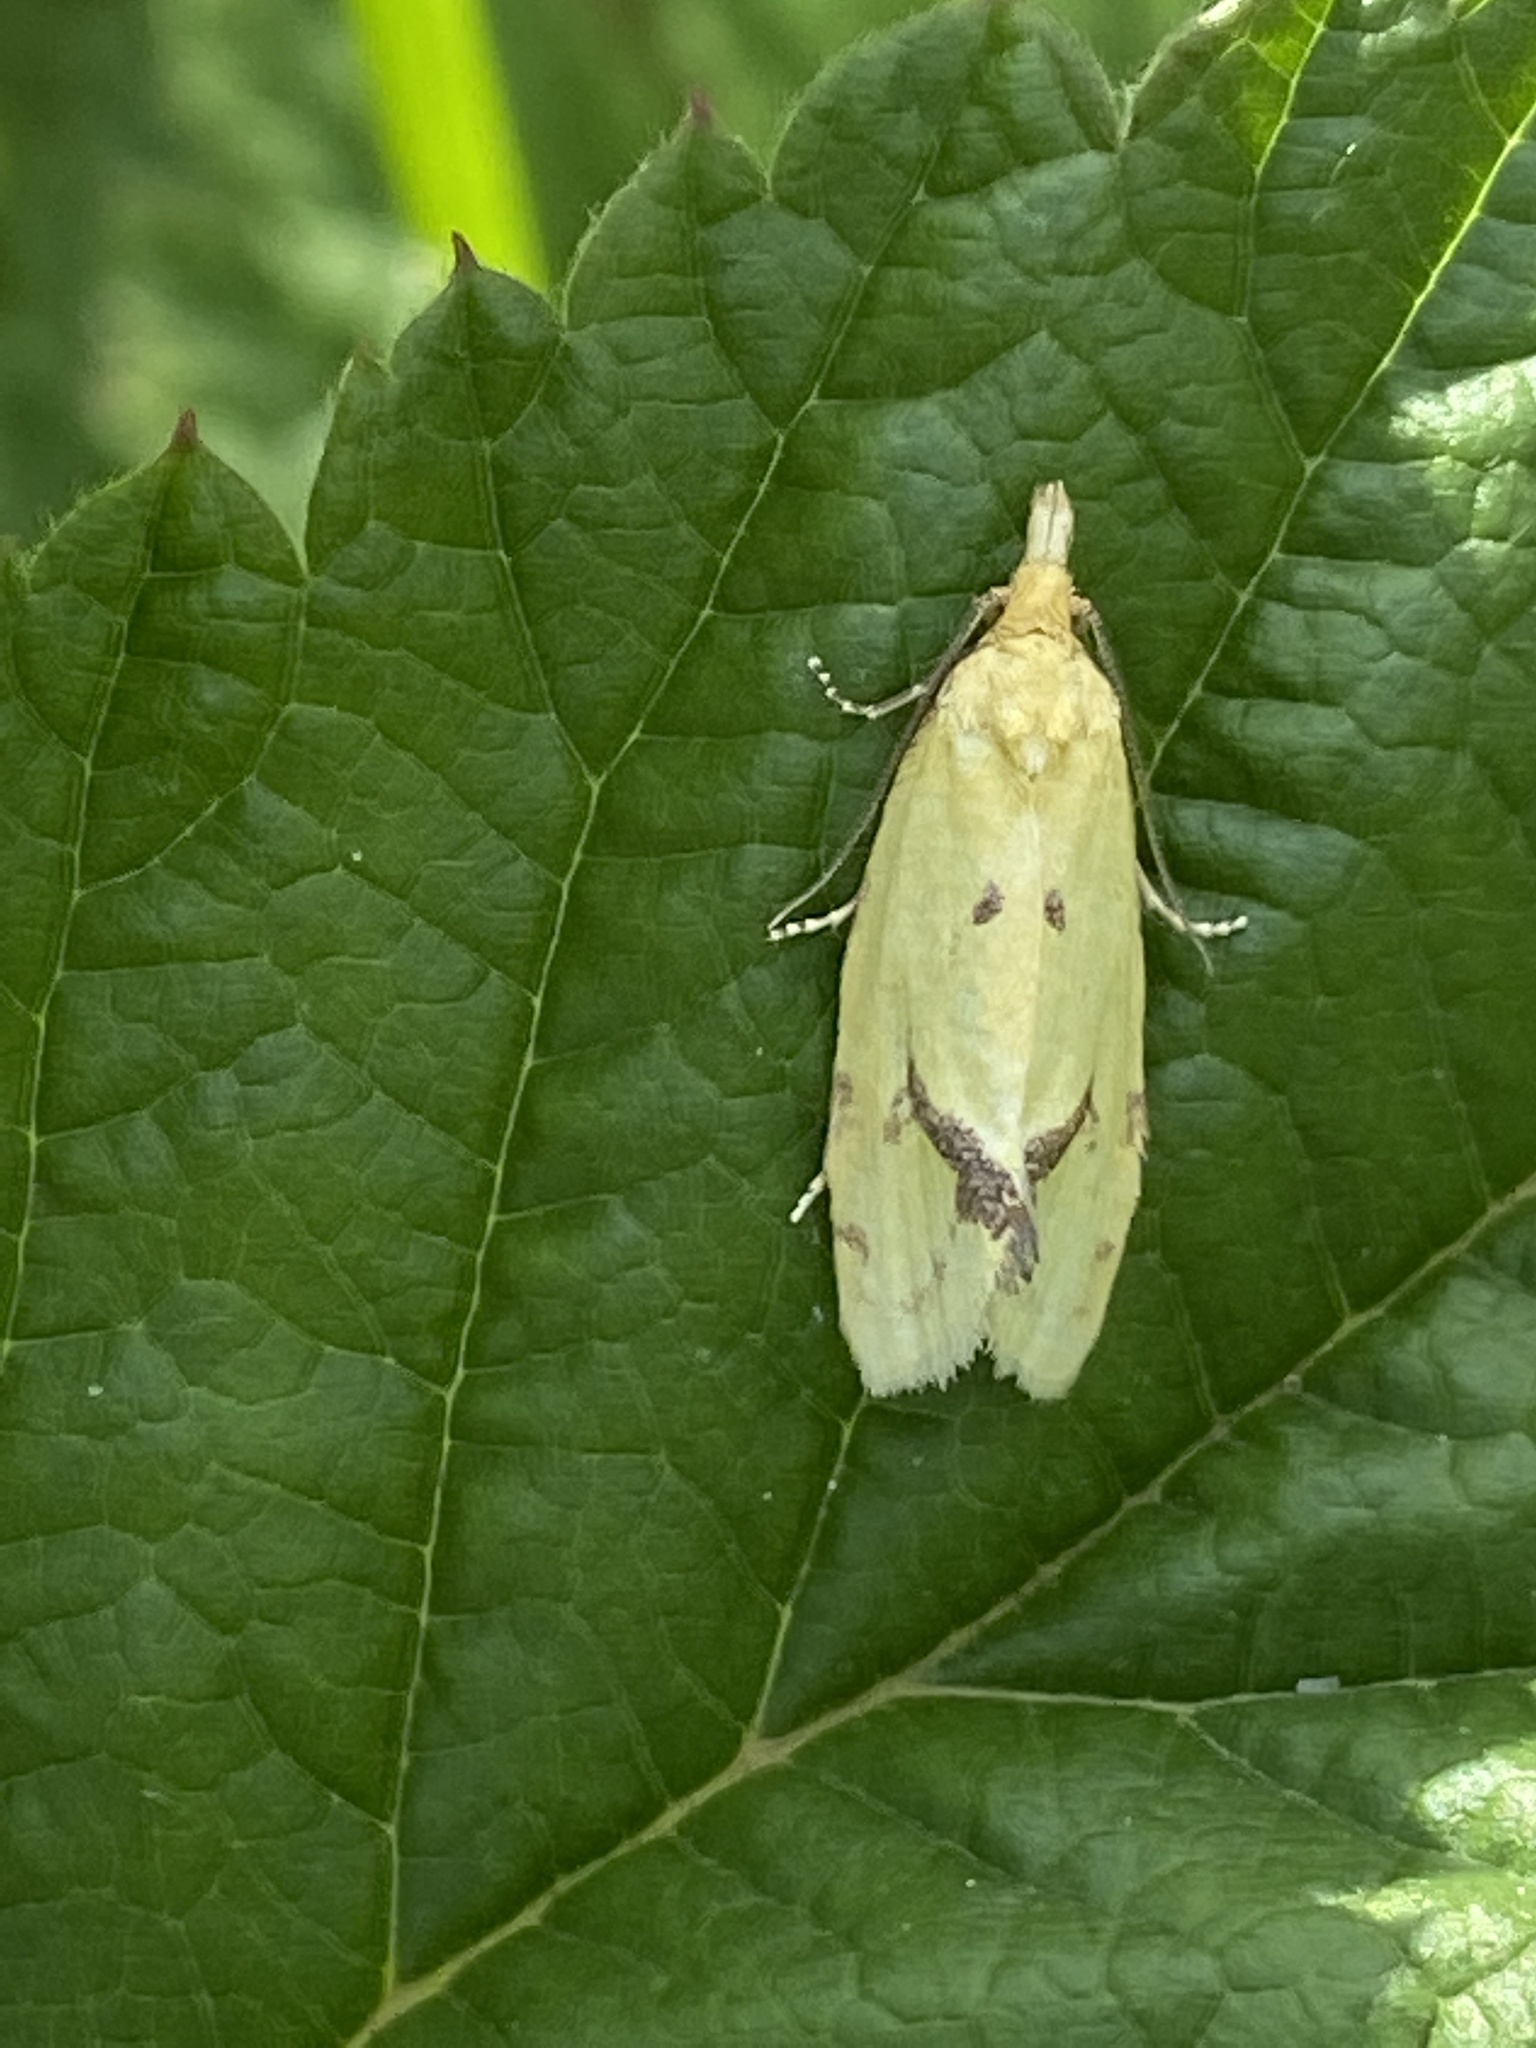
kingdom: Animalia
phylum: Arthropoda
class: Insecta
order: Lepidoptera
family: Tortricidae
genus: Agapeta
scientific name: Agapeta hamana
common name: Common yellow conch
